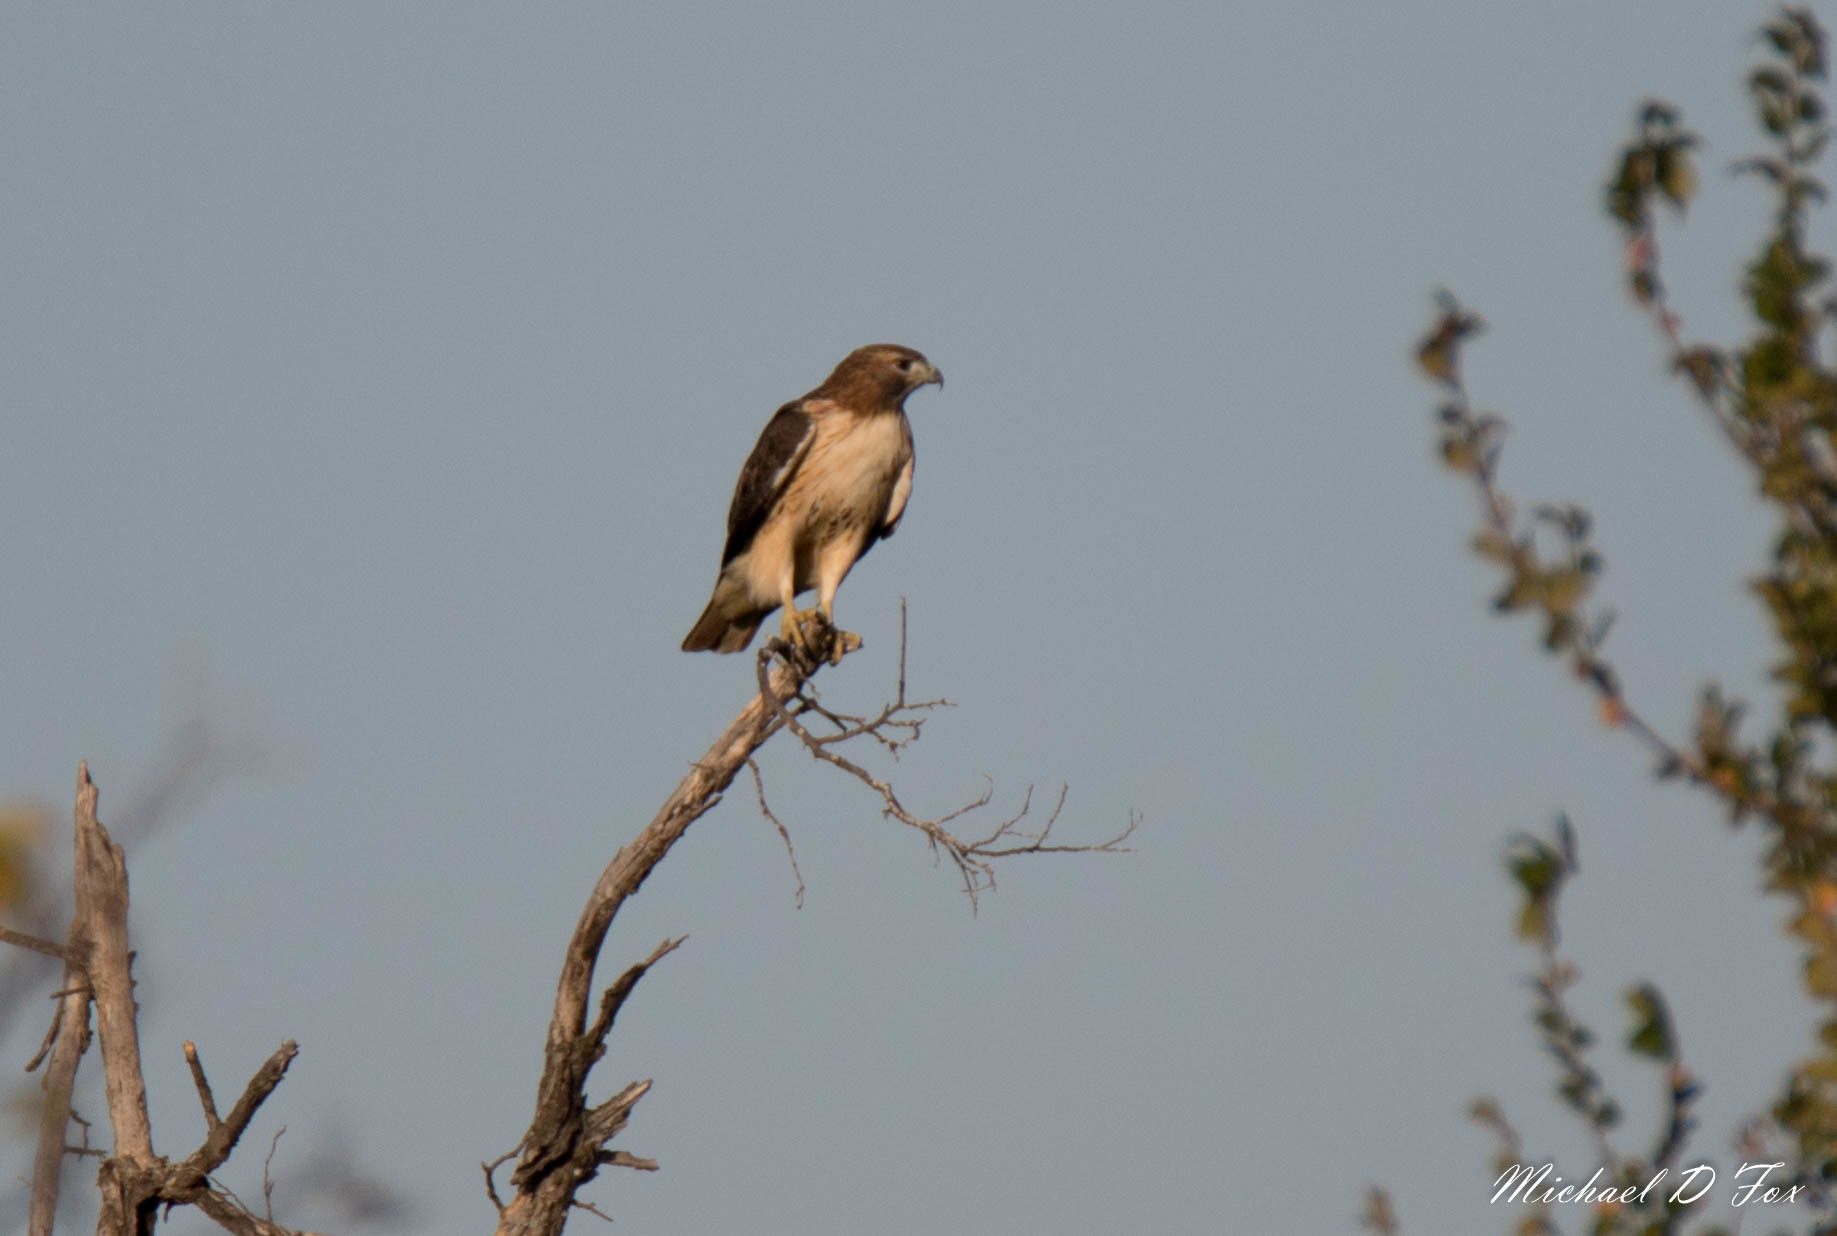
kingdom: Animalia
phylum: Chordata
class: Aves
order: Accipitriformes
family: Accipitridae
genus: Buteo
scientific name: Buteo jamaicensis
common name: Red-tailed hawk
